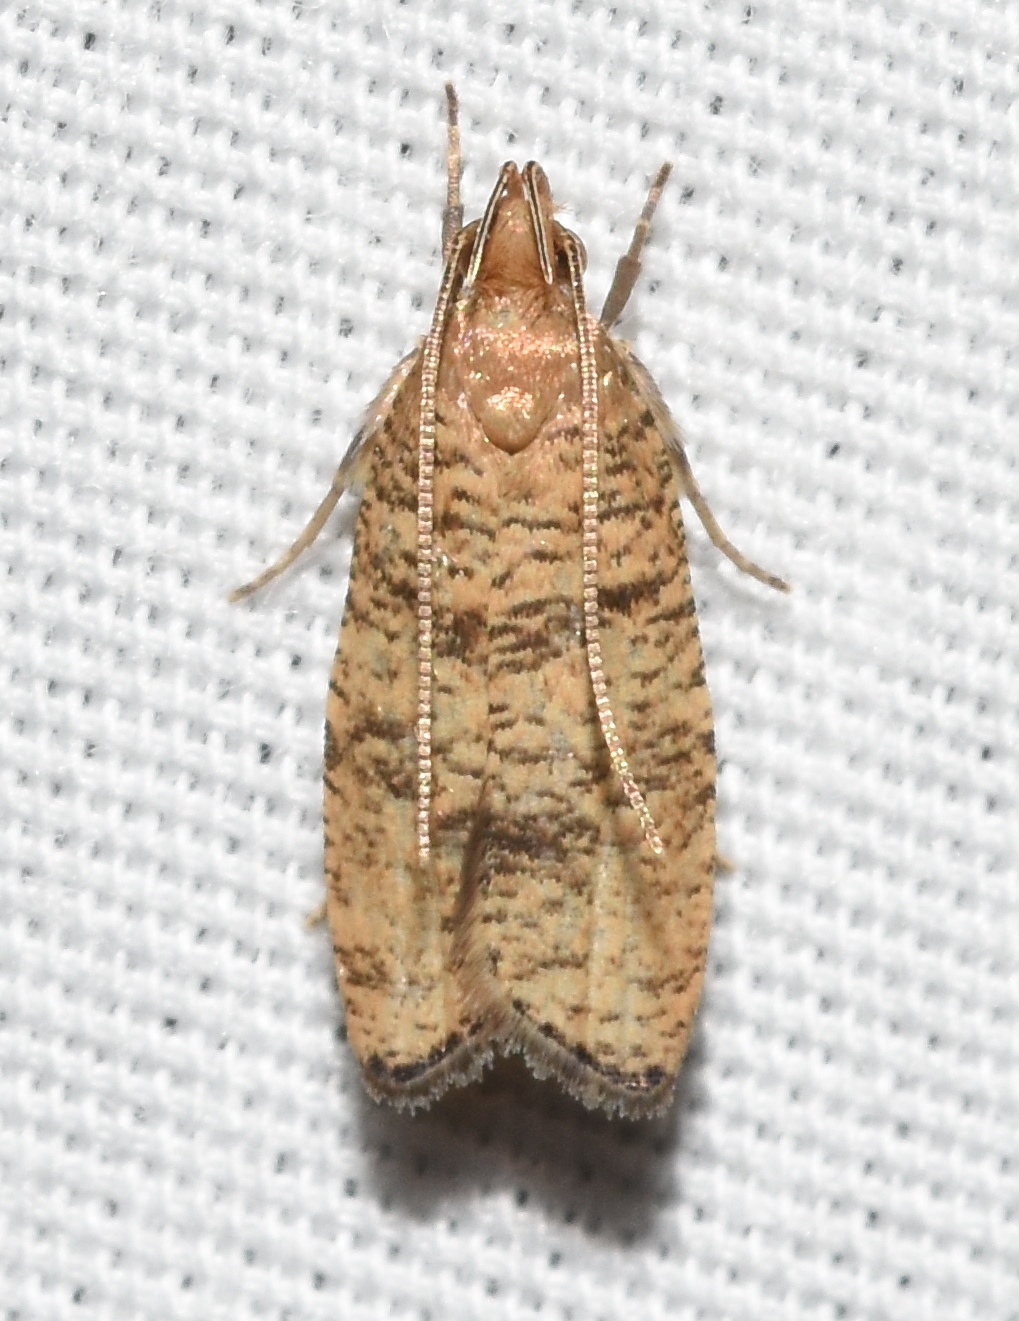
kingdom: Animalia
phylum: Arthropoda
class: Insecta
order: Lepidoptera
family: Depressariidae
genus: Psilocorsis
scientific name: Psilocorsis quercicella
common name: Oak leaftier moth
